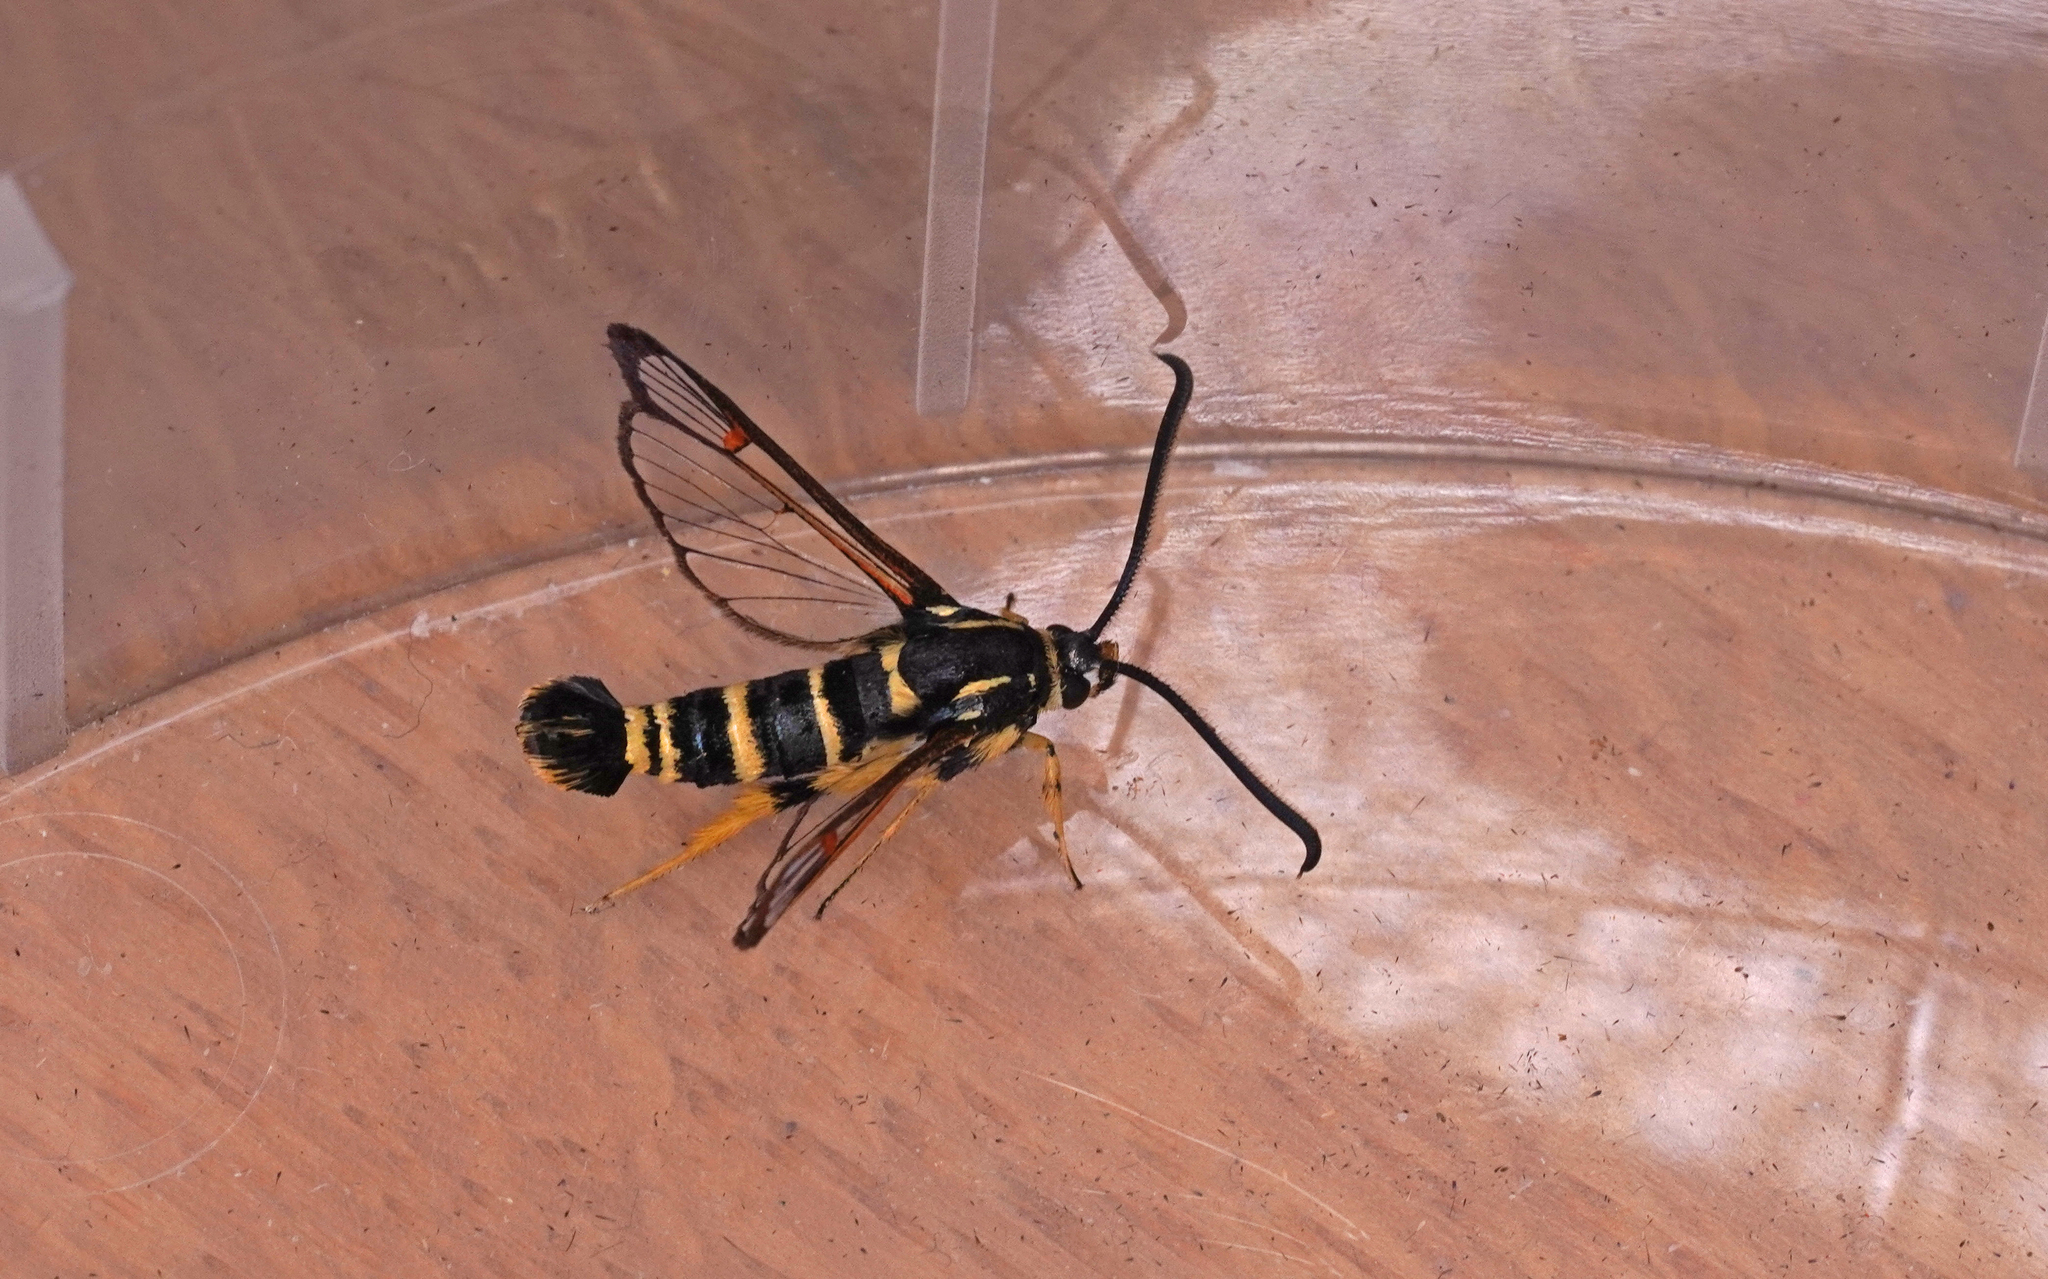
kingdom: Animalia
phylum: Arthropoda
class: Insecta
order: Lepidoptera
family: Sesiidae
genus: Synanthedon
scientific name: Synanthedon vespiformis
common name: Yellow-legged clearwing
